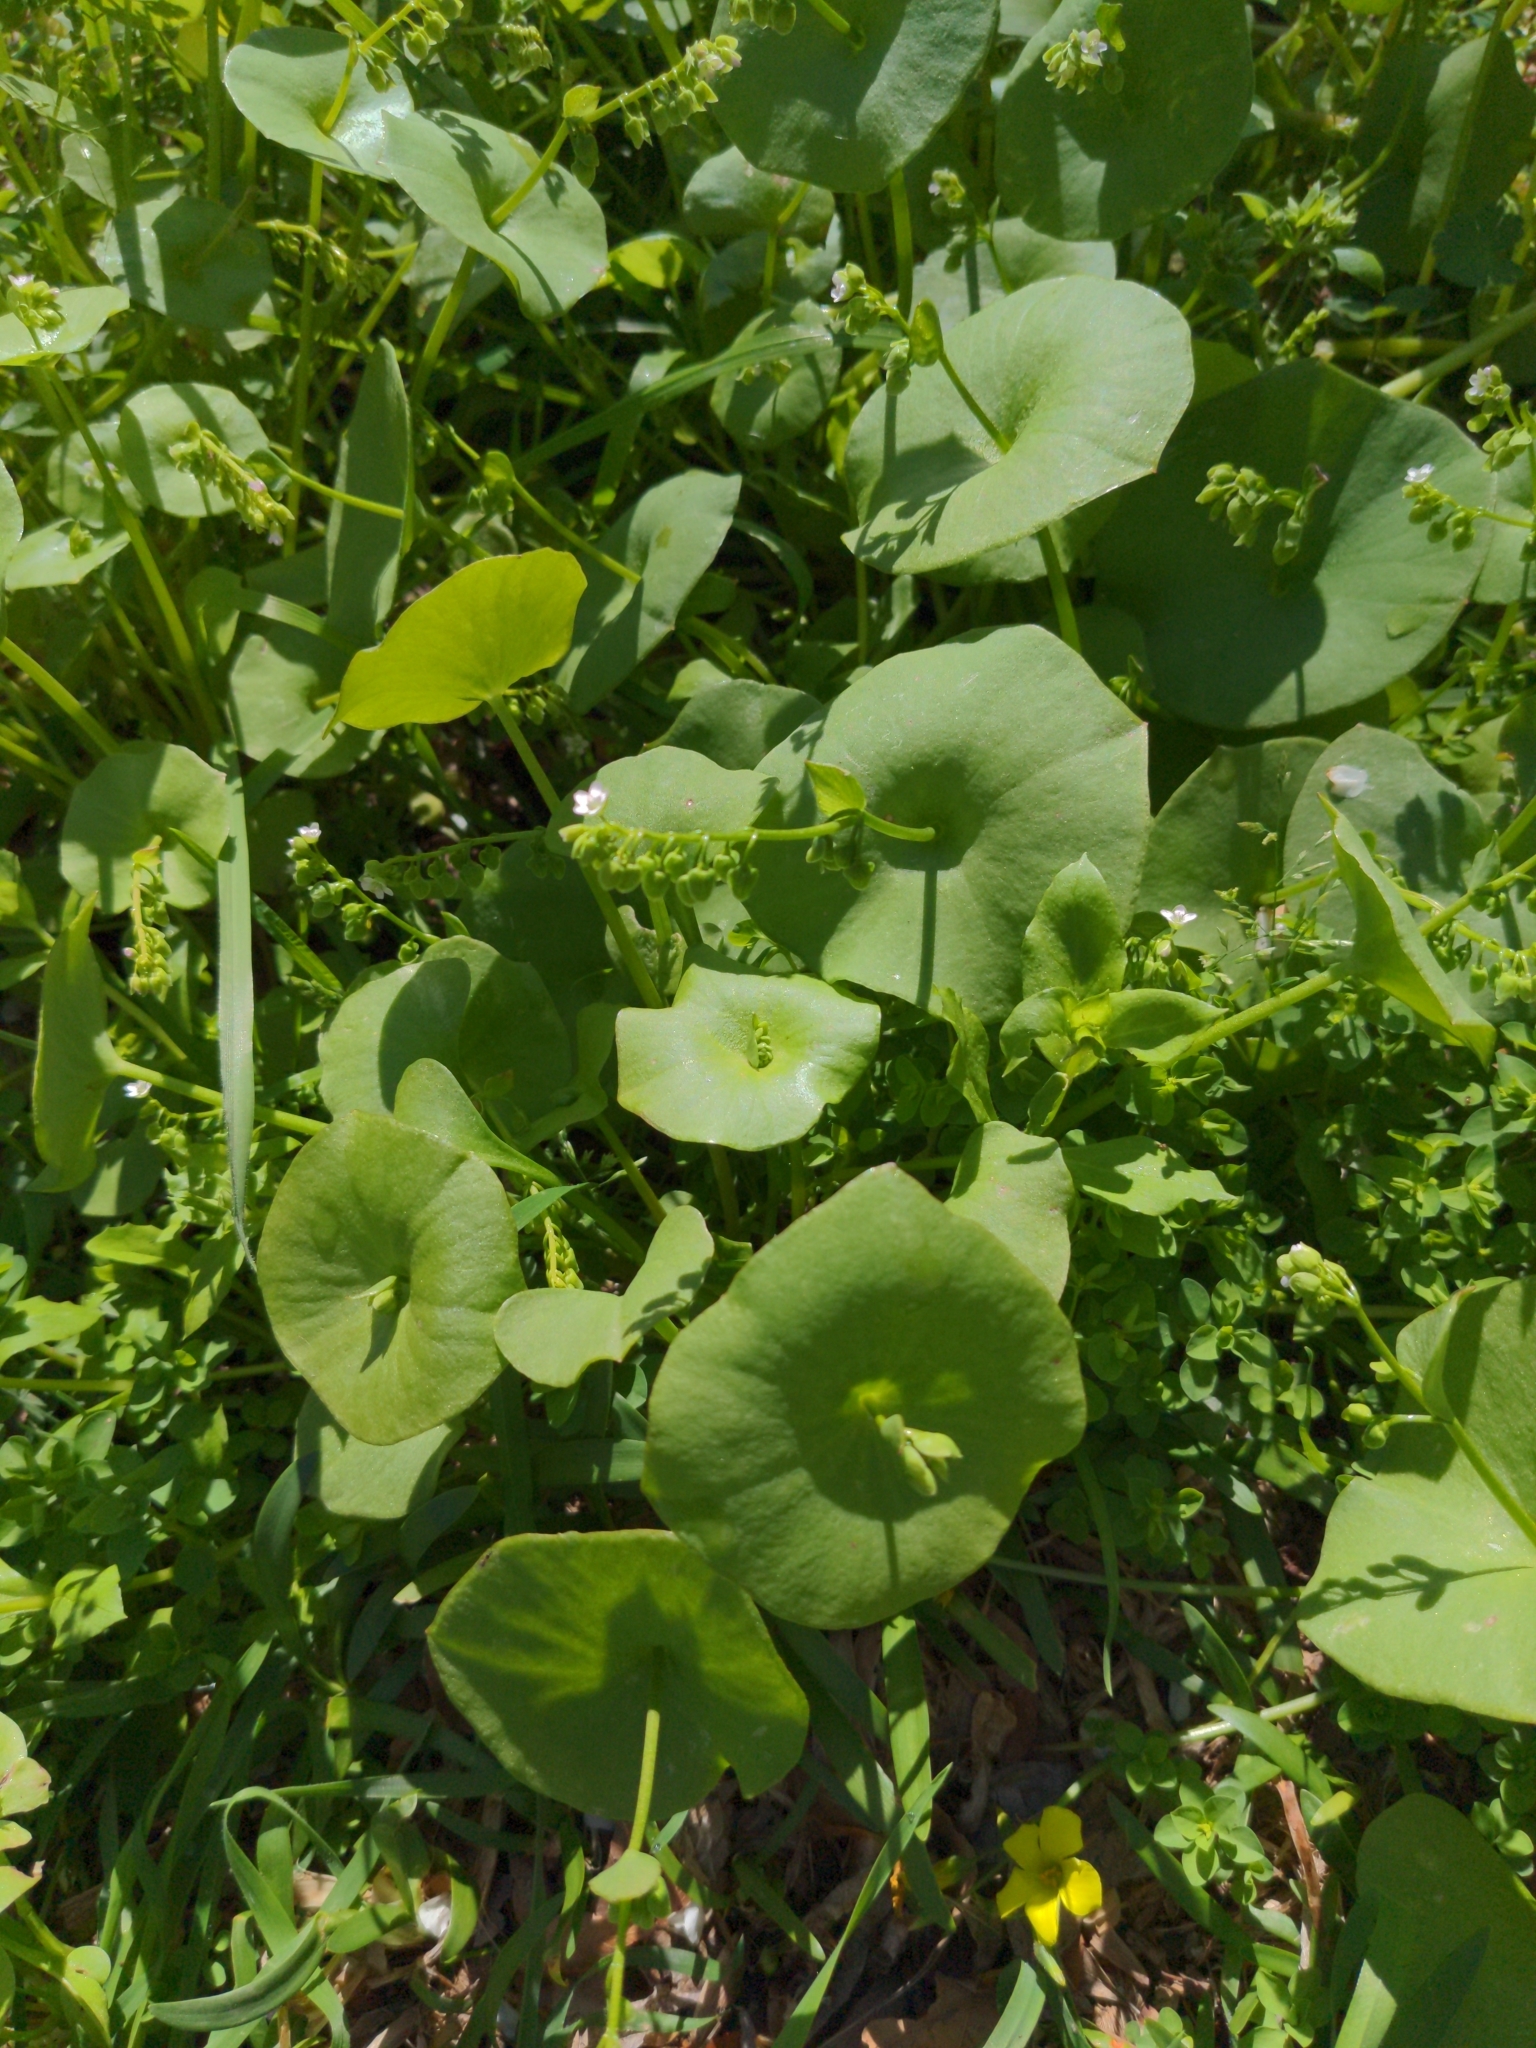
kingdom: Plantae
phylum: Tracheophyta
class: Magnoliopsida
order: Caryophyllales
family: Montiaceae
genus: Claytonia
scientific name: Claytonia perfoliata
